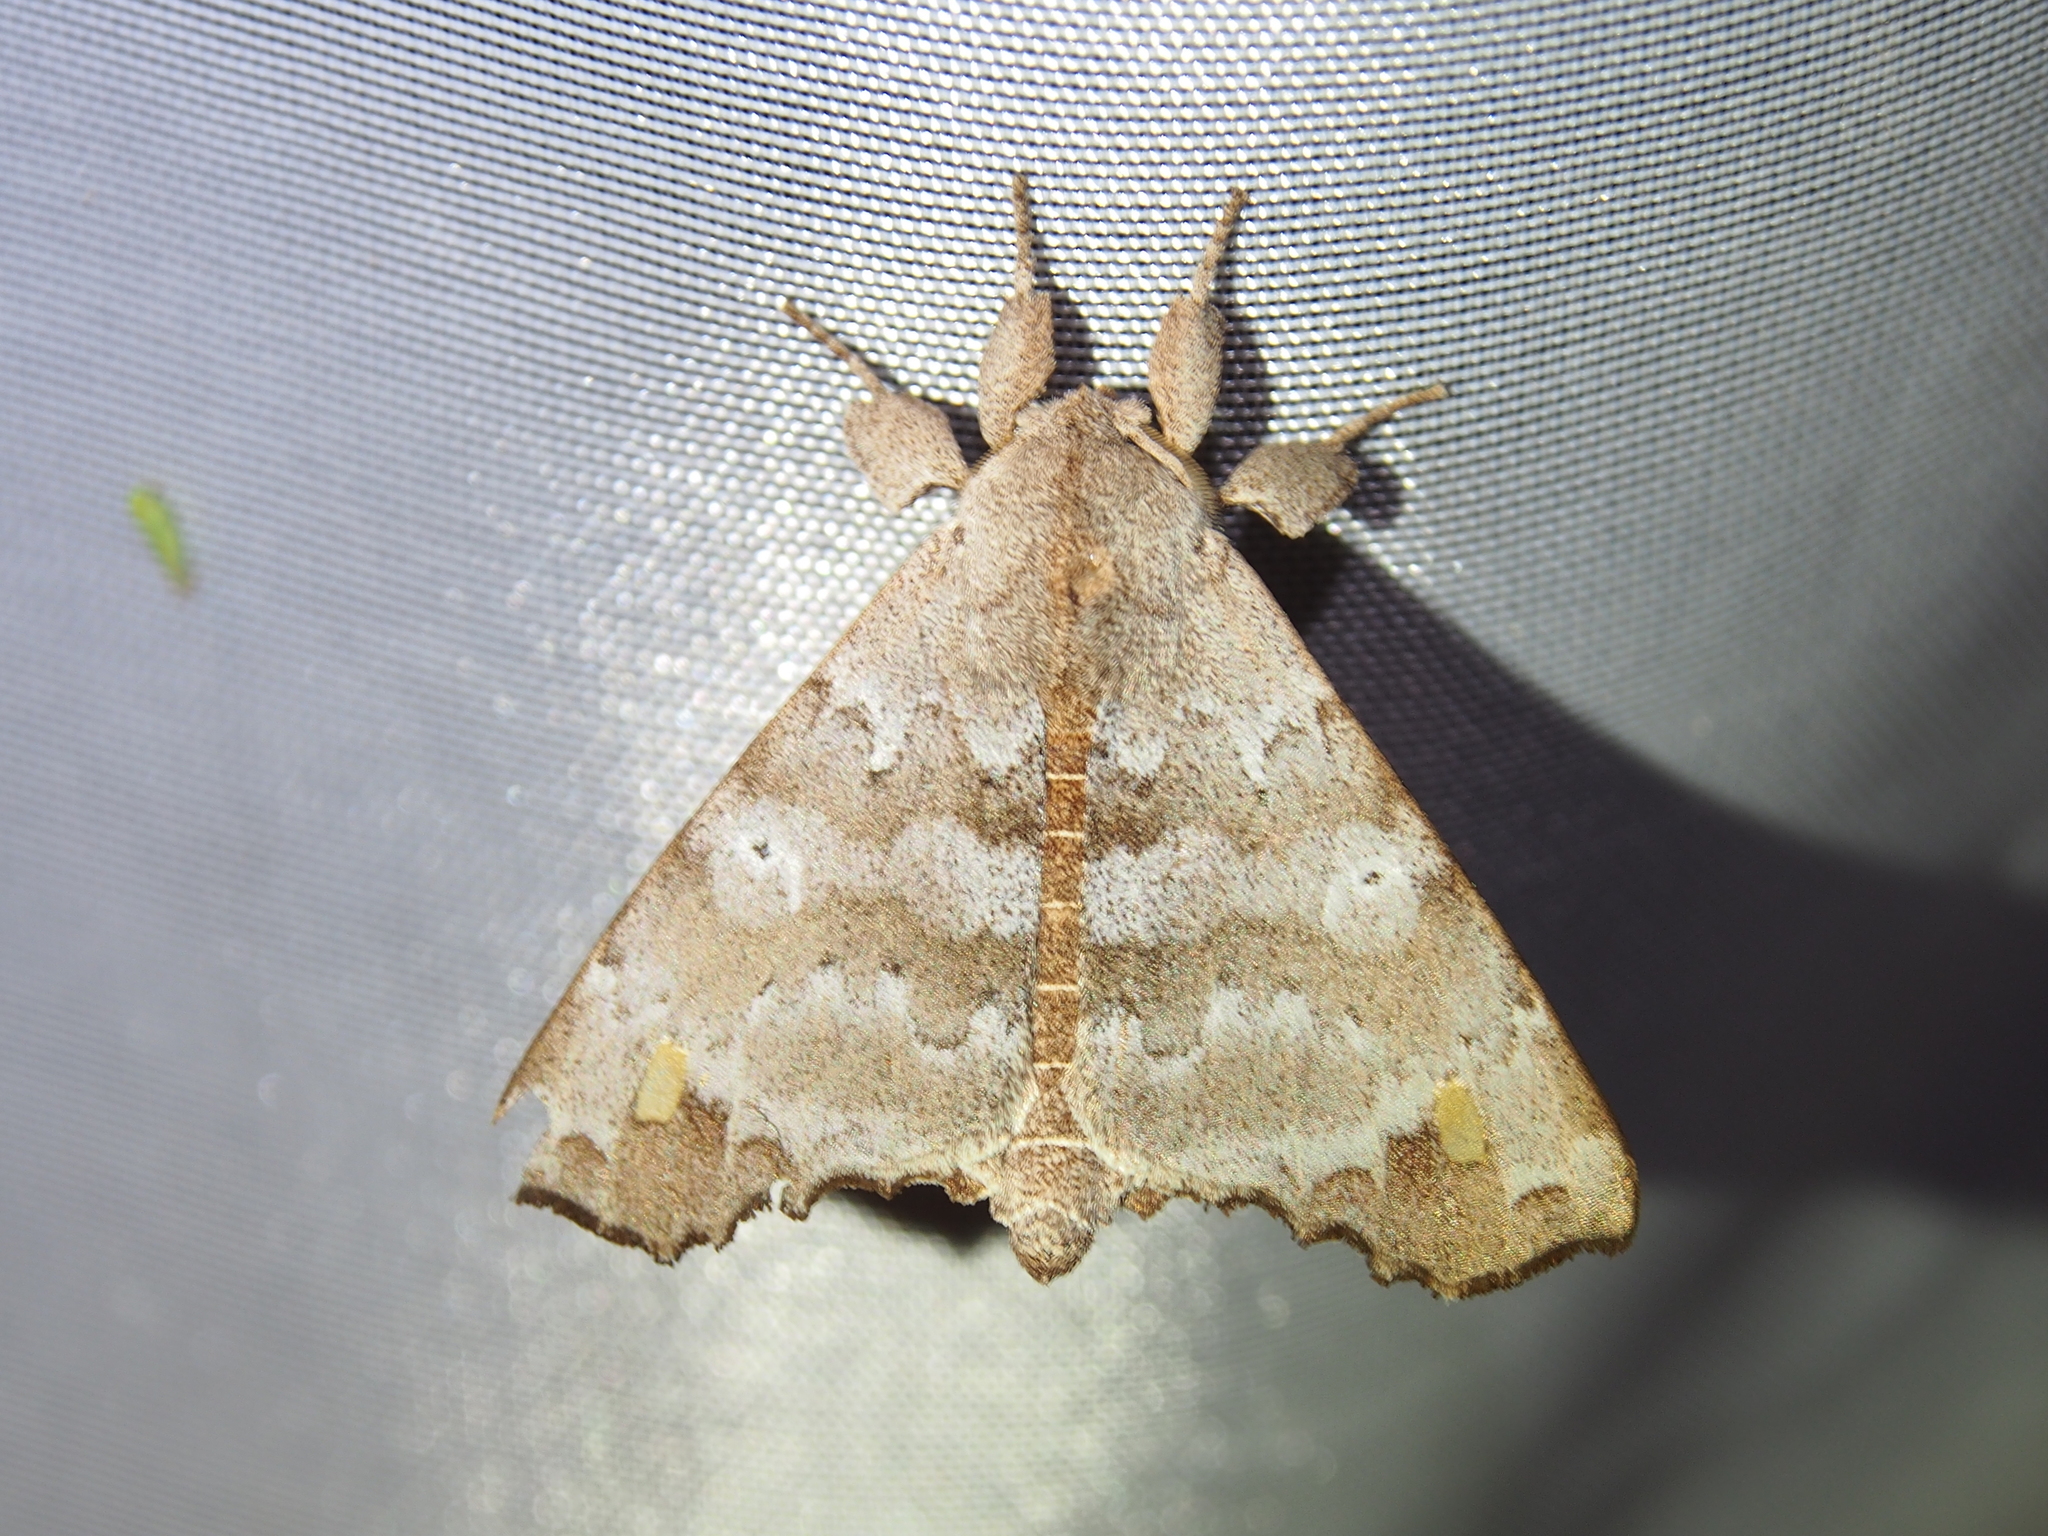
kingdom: Animalia
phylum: Arthropoda
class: Insecta
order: Lepidoptera
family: Apatelodidae
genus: Olceclostera
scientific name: Olceclostera magniplaga
